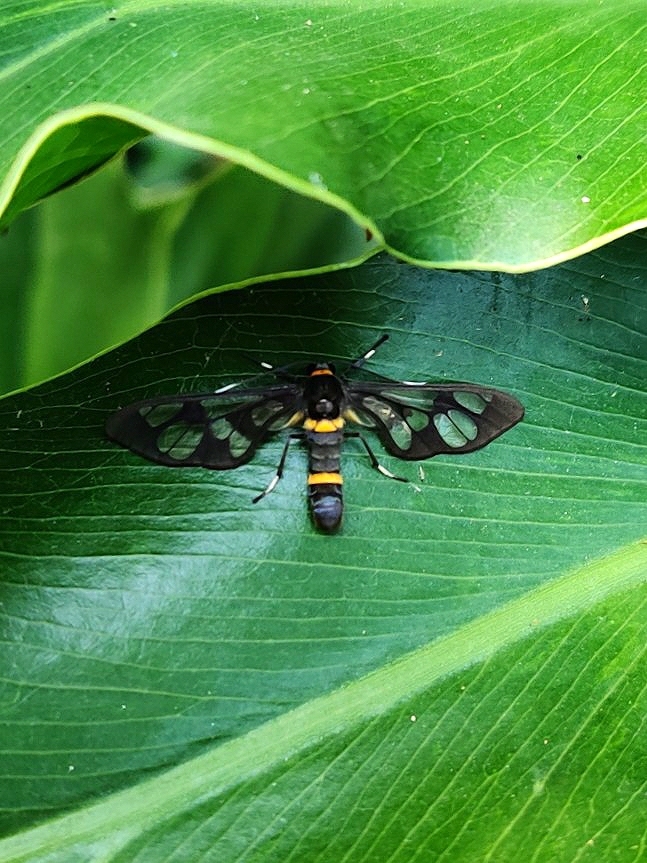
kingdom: Animalia
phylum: Arthropoda
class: Insecta
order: Lepidoptera
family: Erebidae
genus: Syntomoides
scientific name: Syntomoides imaon
